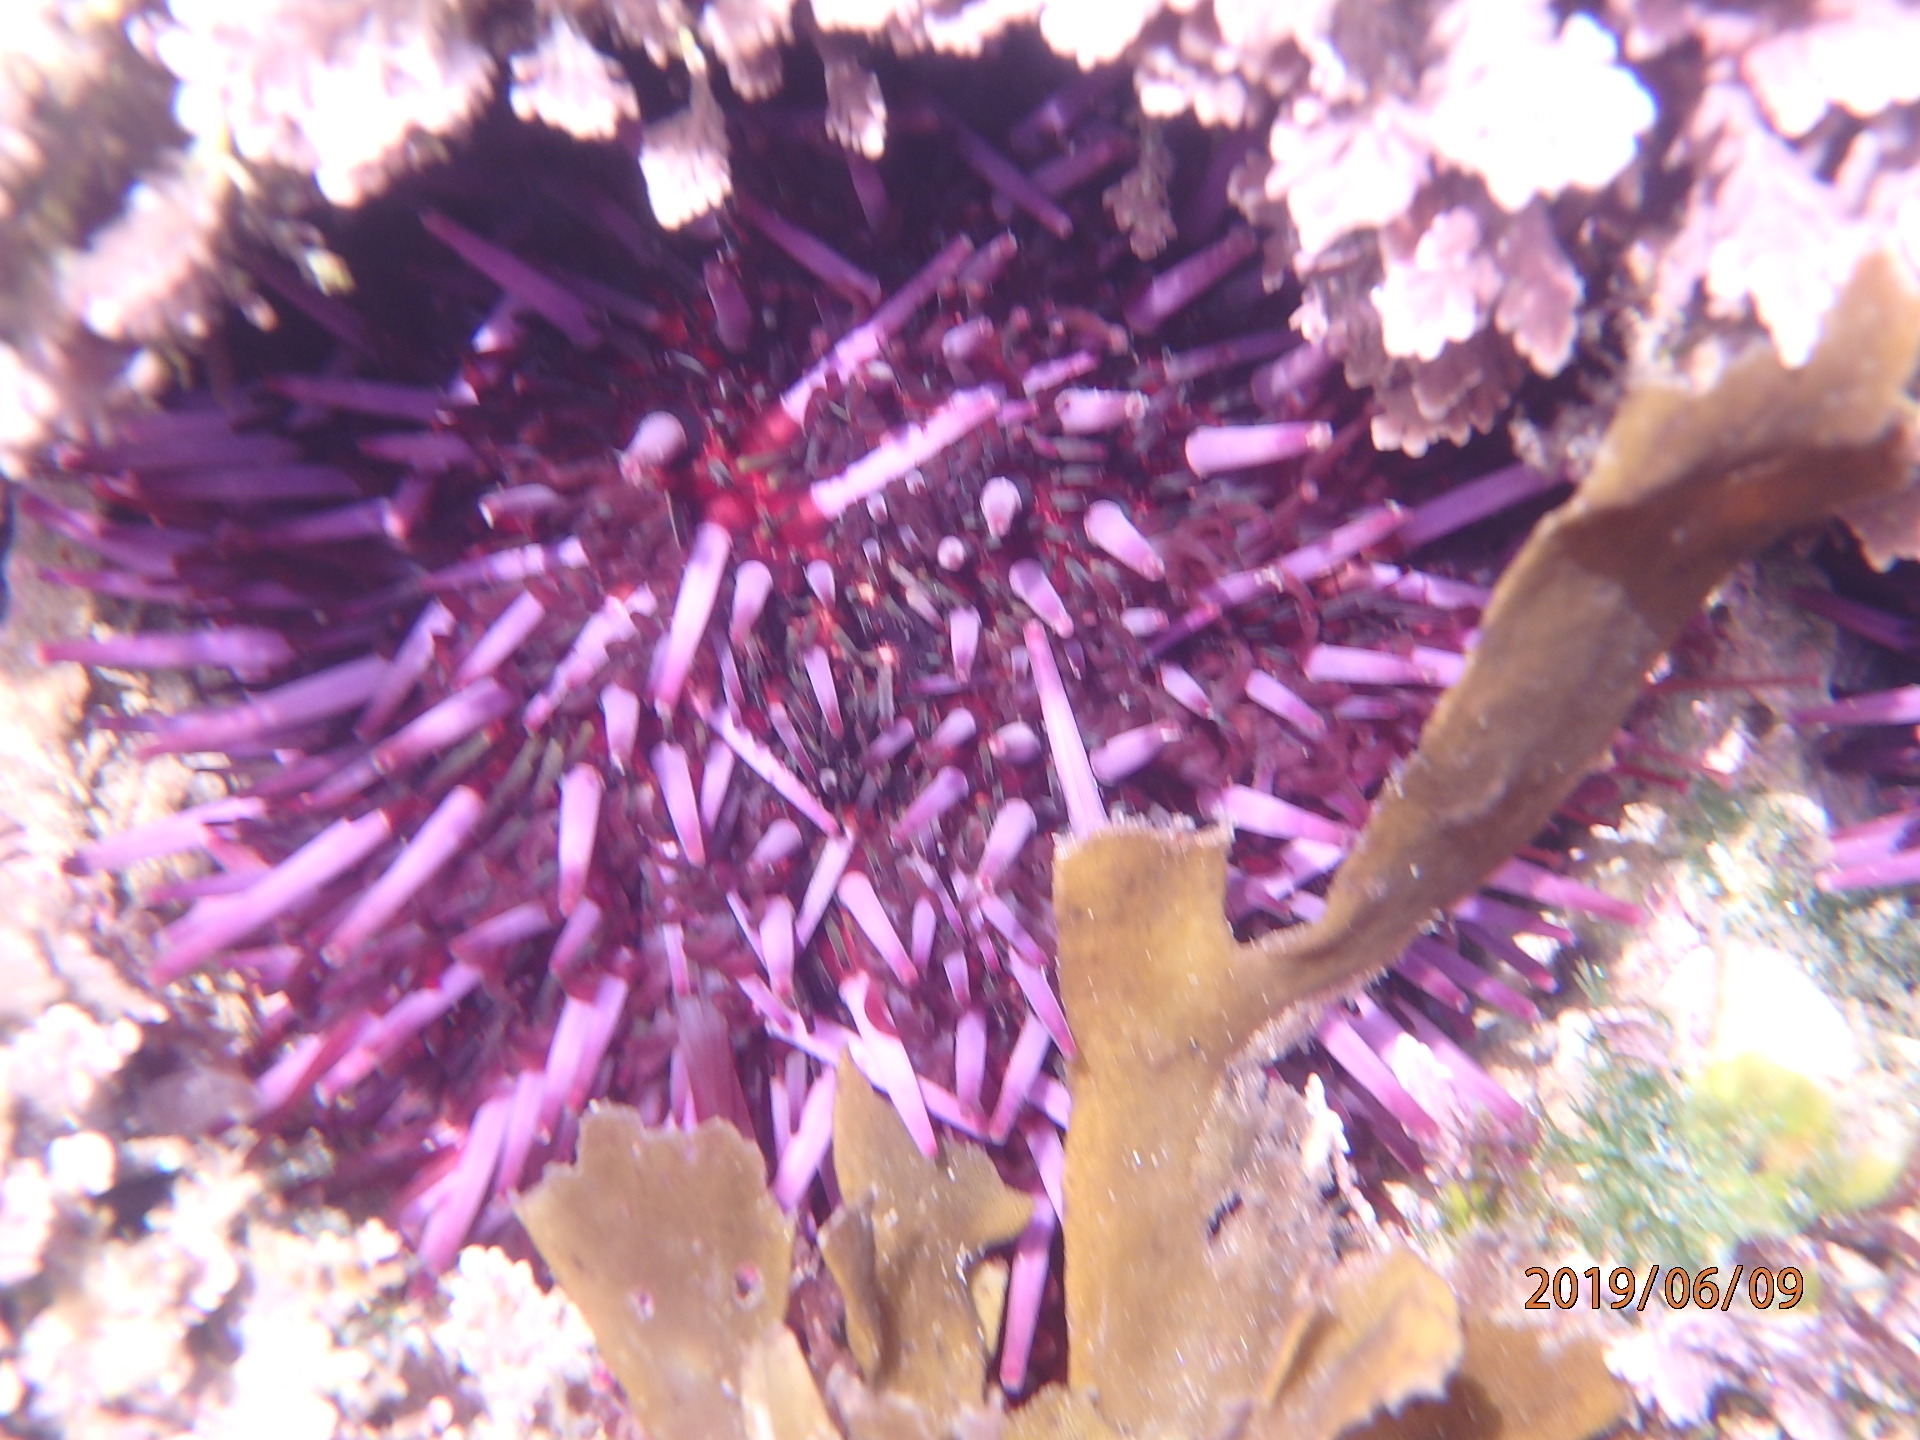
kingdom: Animalia
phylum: Echinodermata
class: Echinoidea
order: Camarodonta
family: Strongylocentrotidae
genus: Strongylocentrotus
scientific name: Strongylocentrotus purpuratus
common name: Purple sea urchin
